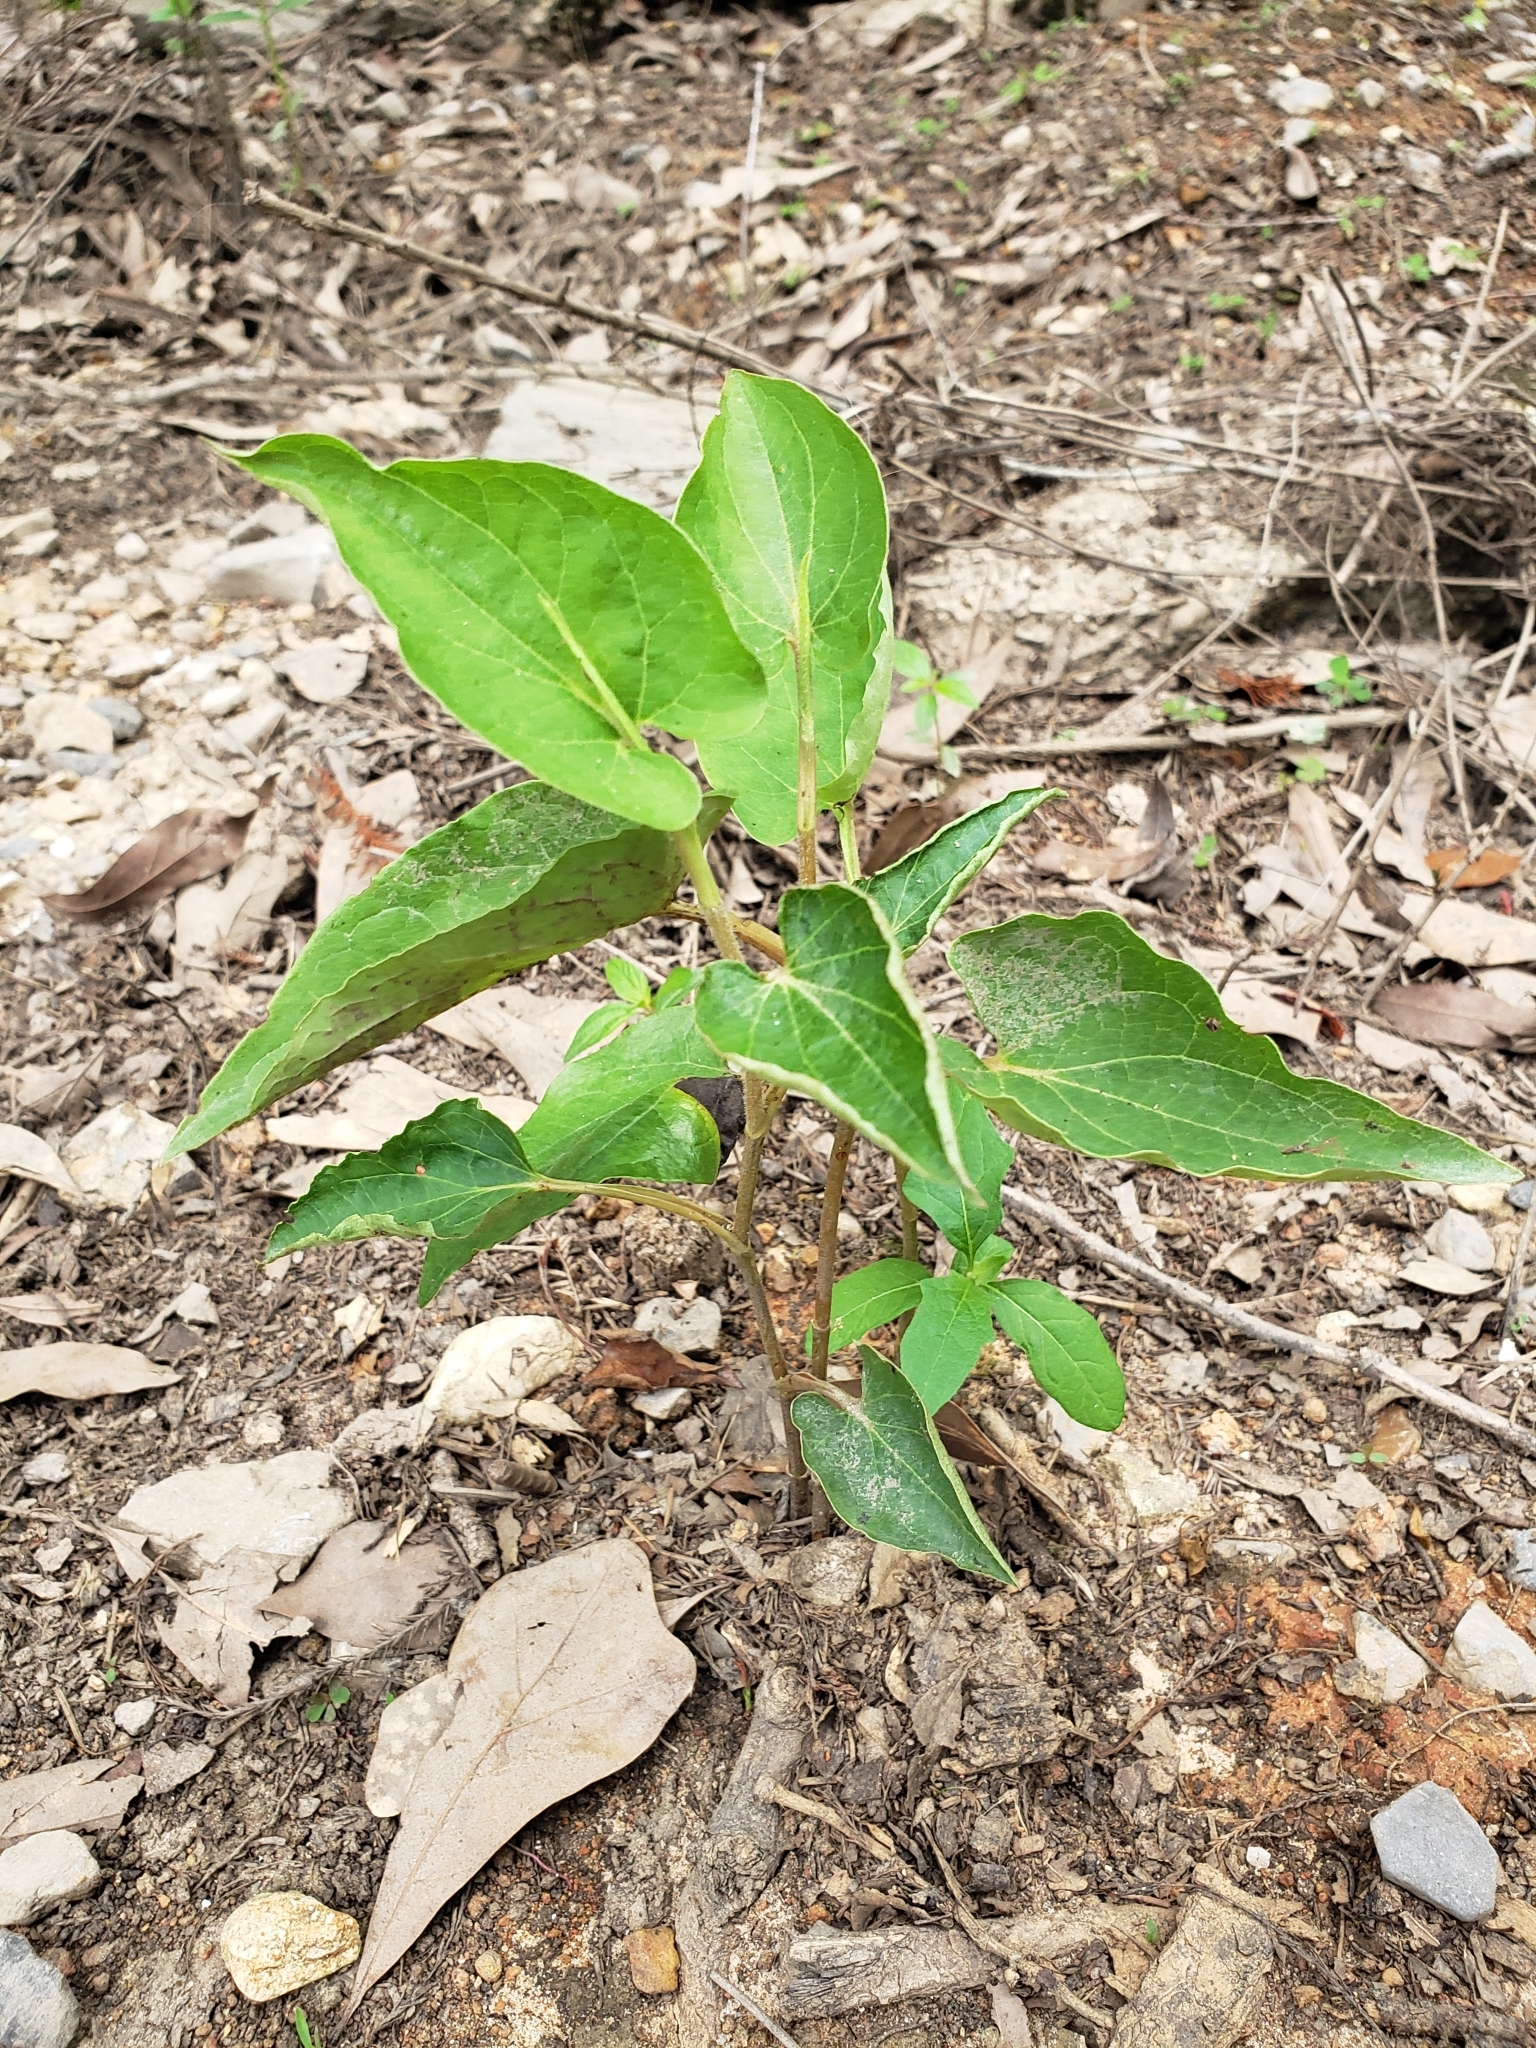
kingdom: Plantae
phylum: Tracheophyta
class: Magnoliopsida
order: Piperales
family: Saururaceae
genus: Saururus
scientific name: Saururus cernuus
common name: Lizard's-tail
